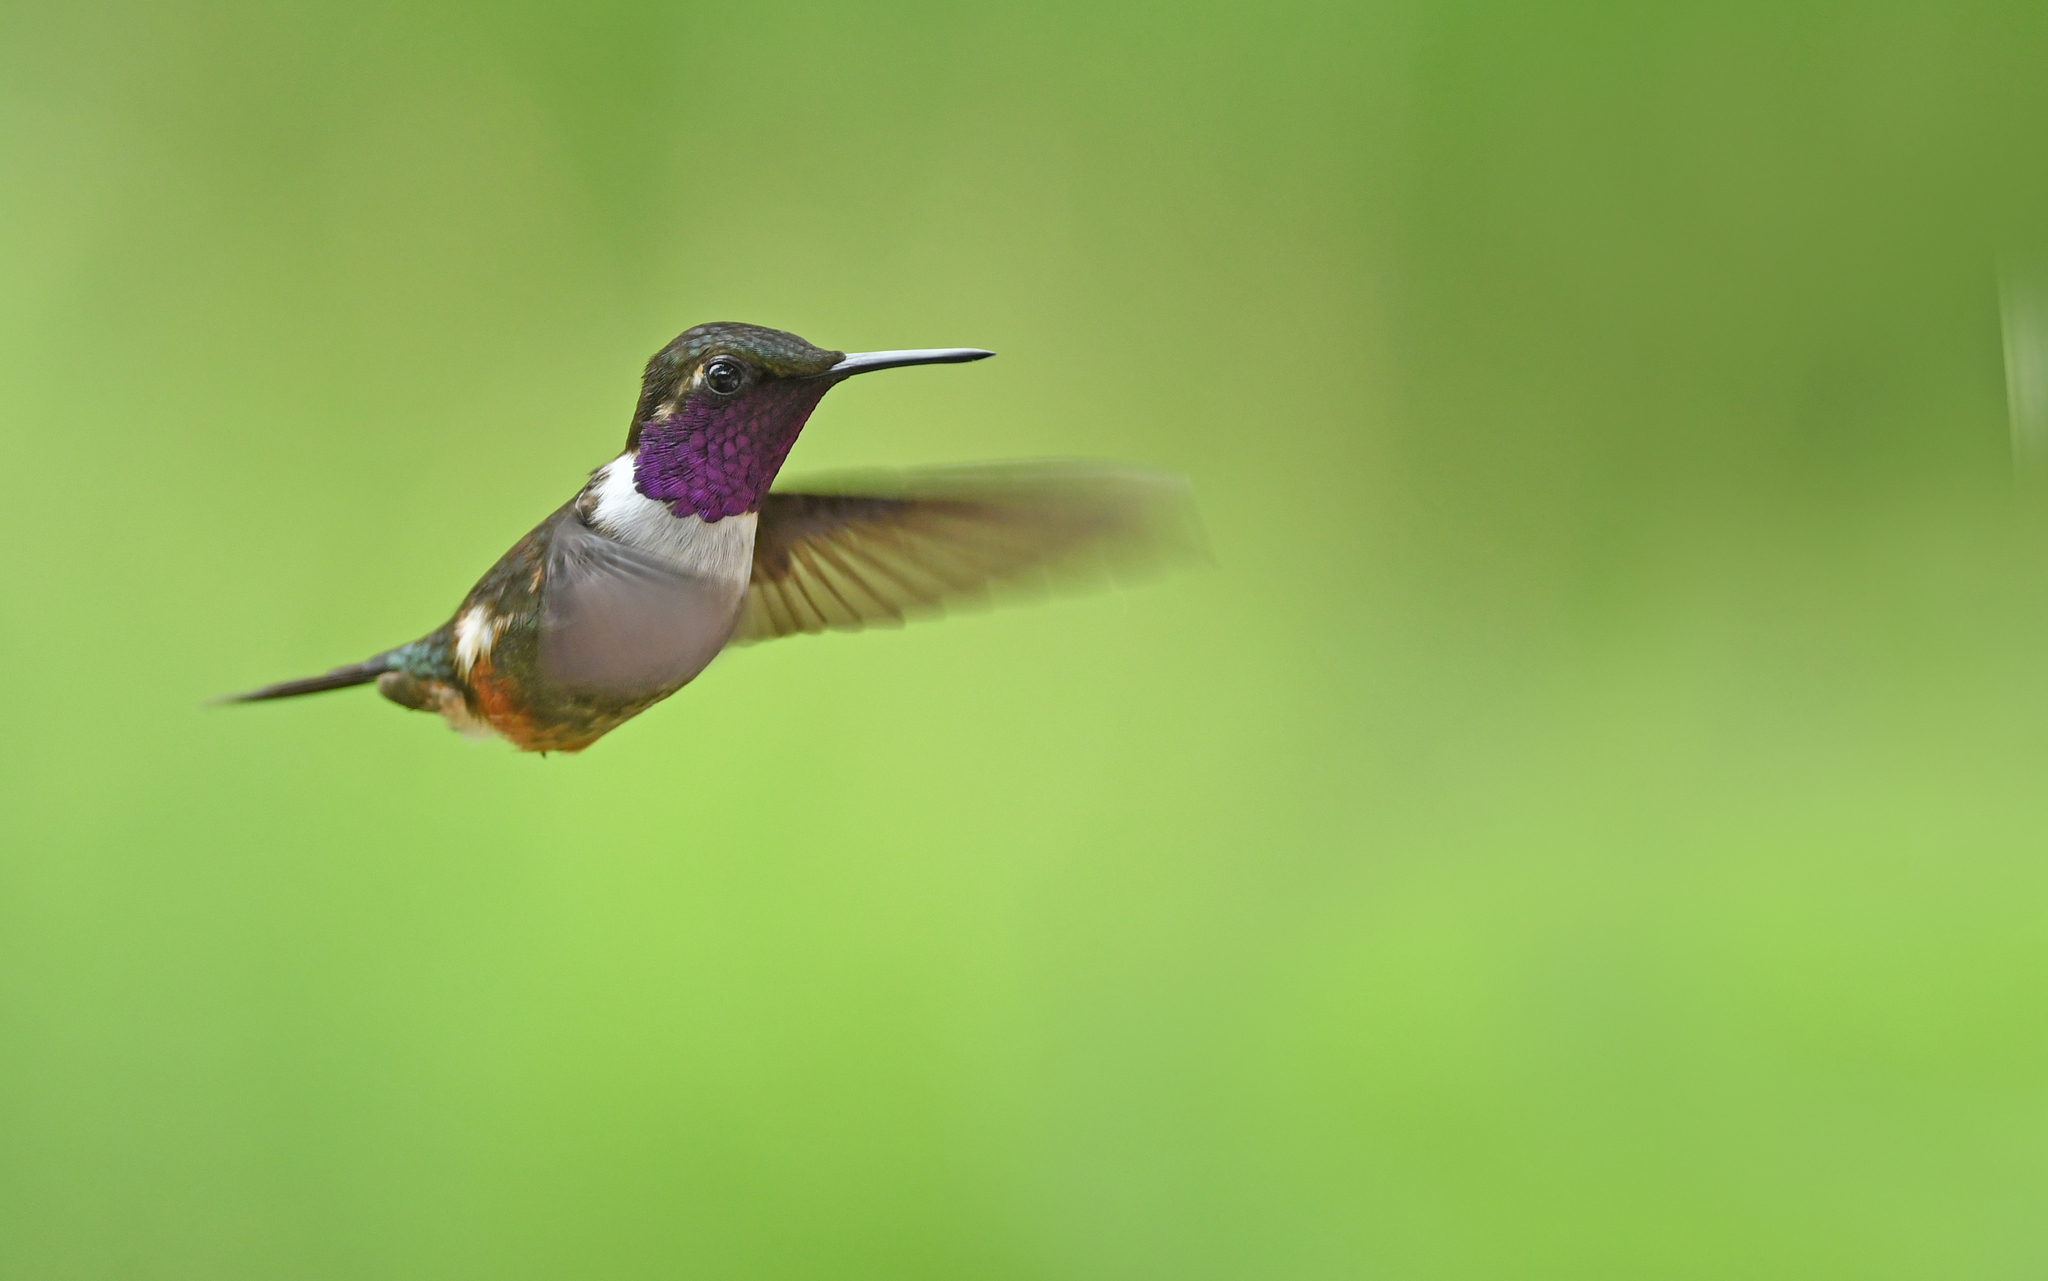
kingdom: Animalia
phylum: Chordata
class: Aves
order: Apodiformes
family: Trochilidae
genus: Calliphlox
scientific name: Calliphlox mitchellii
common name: Purple-throated woodstar
